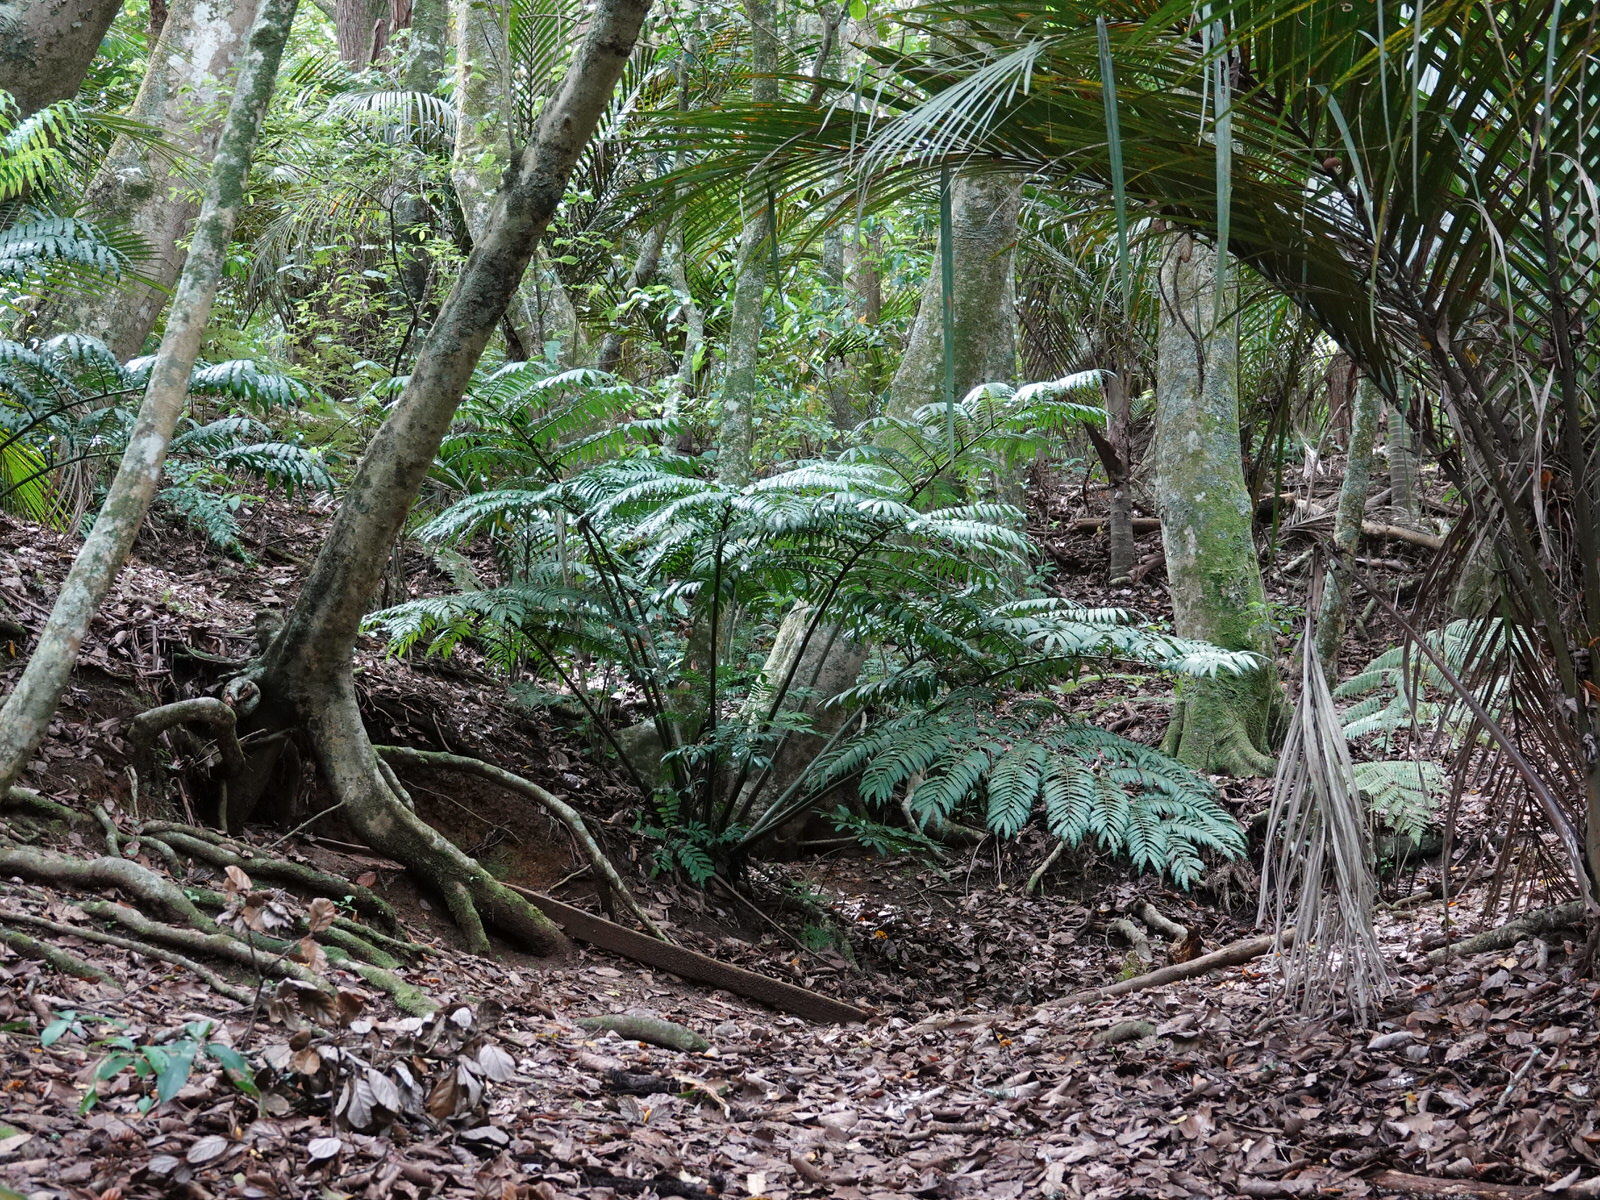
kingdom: Plantae
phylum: Tracheophyta
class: Polypodiopsida
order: Marattiales
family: Marattiaceae
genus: Ptisana
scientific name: Ptisana salicina
